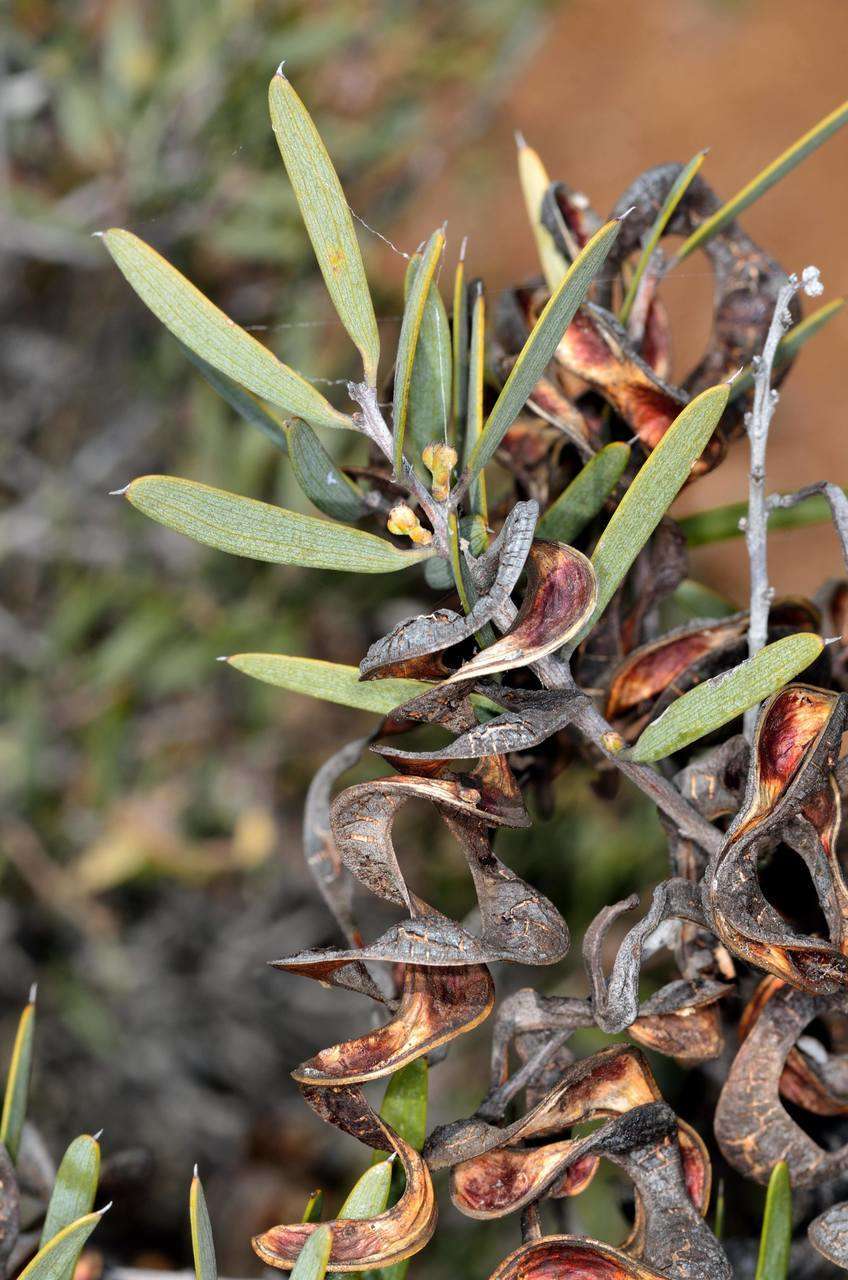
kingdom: Plantae
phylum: Tracheophyta
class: Magnoliopsida
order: Fabales
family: Fabaceae
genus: Acacia
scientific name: Acacia oswaldii
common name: Umbrella wattle
